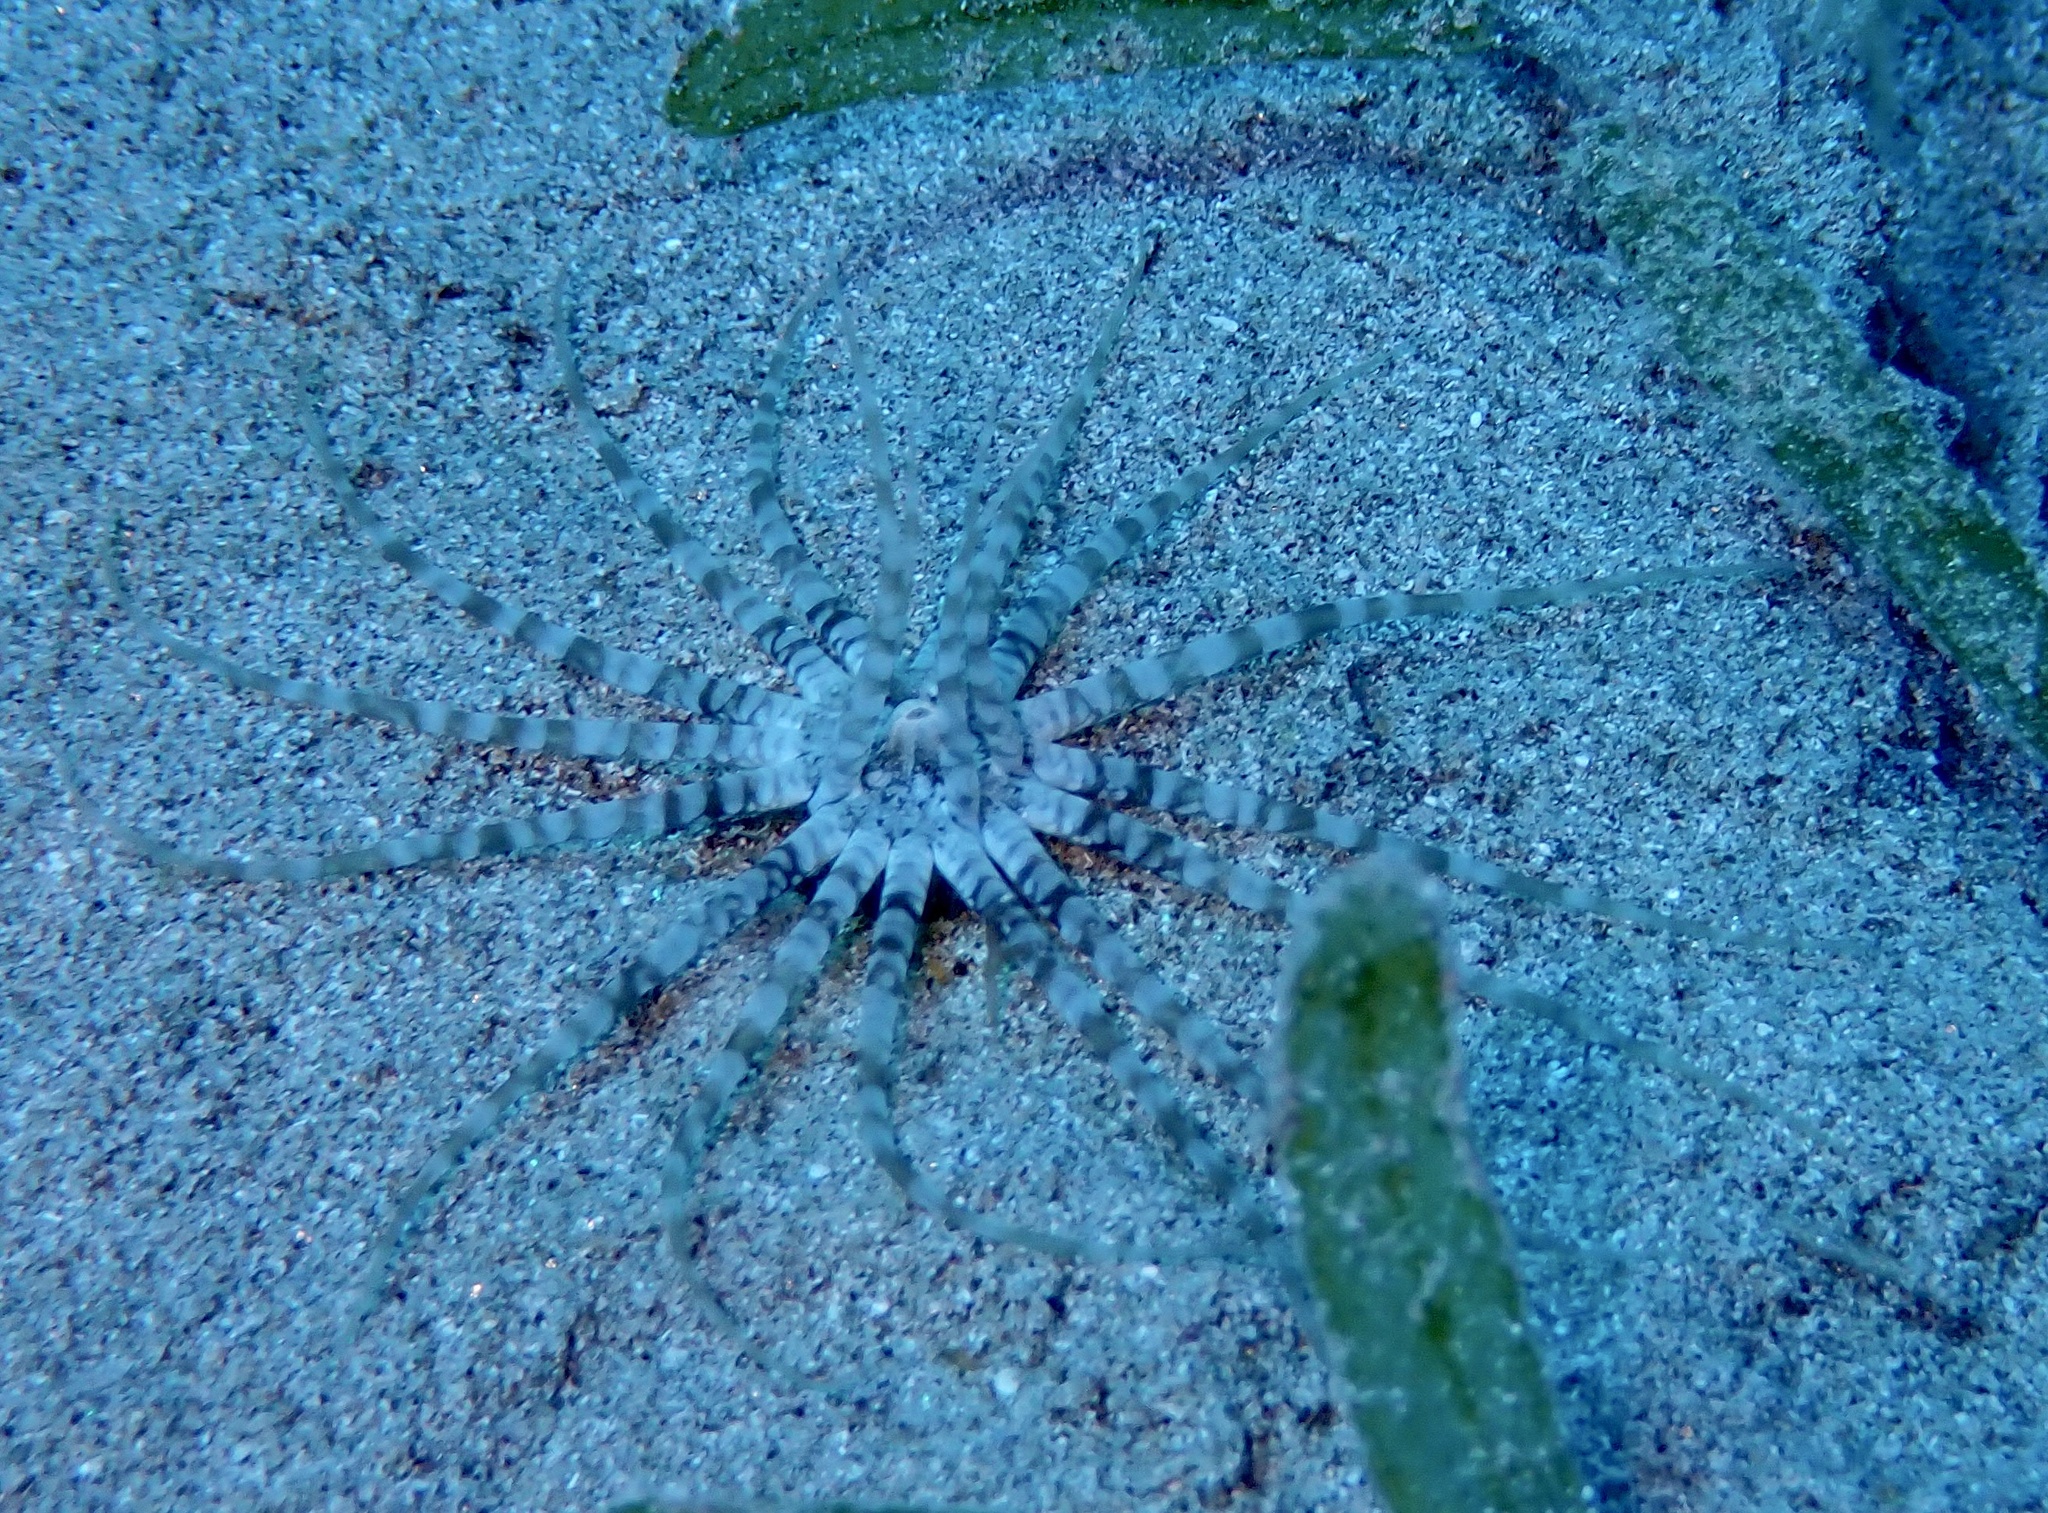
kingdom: Animalia
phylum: Cnidaria
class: Anthozoa
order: Actiniaria
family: Edwardsiidae
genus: Edwardsianthus
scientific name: Edwardsianthus gilbertensis
